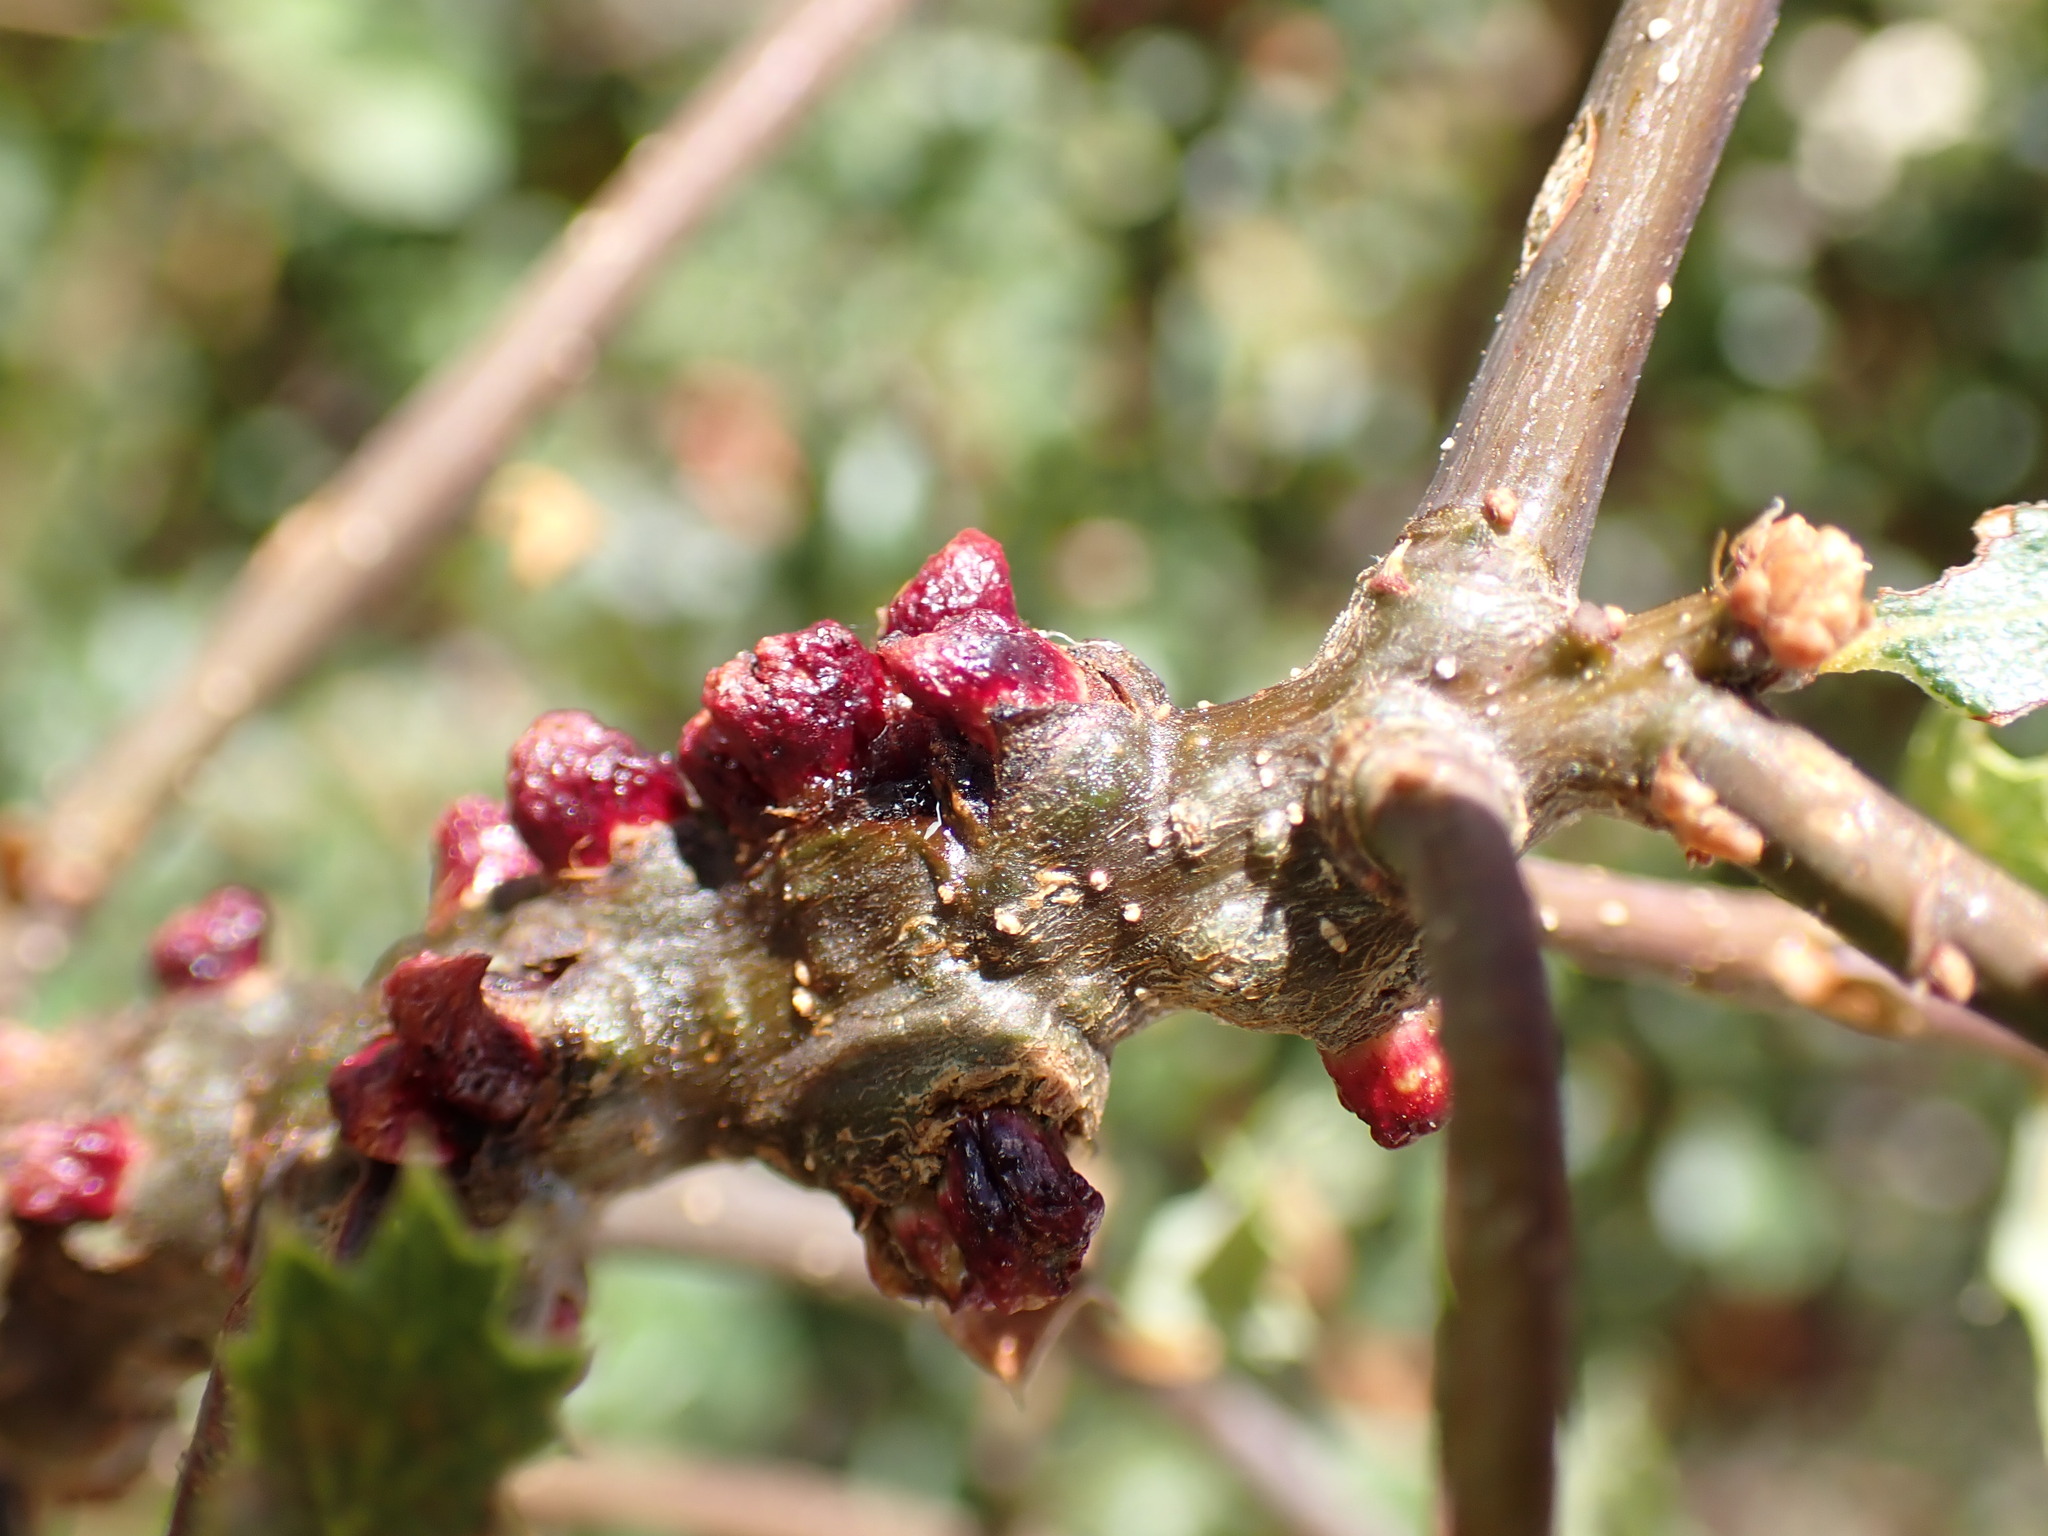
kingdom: Animalia
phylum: Arthropoda
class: Insecta
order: Hymenoptera
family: Cynipidae
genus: Disholcaspis
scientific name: Disholcaspis
